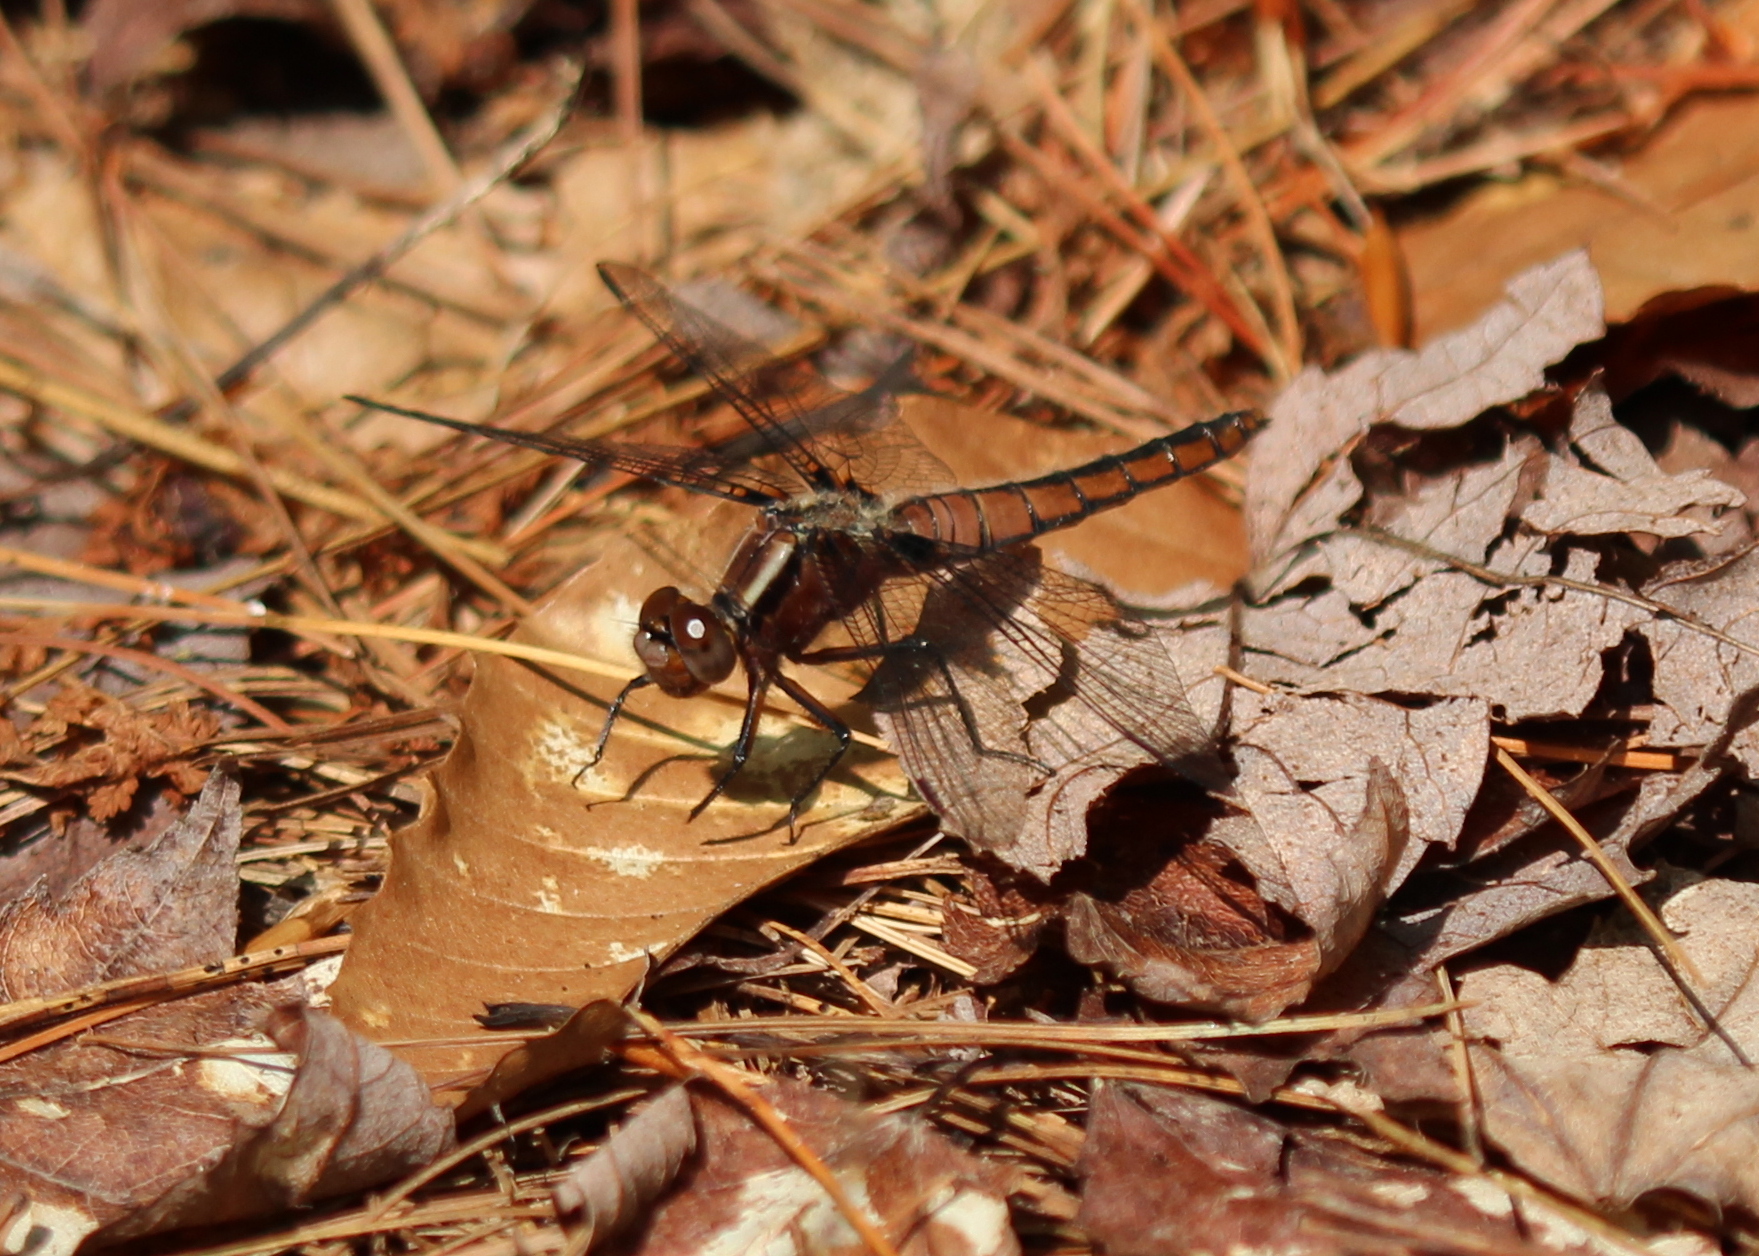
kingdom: Animalia
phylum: Arthropoda
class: Insecta
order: Odonata
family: Libellulidae
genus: Ladona
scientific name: Ladona julia
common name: Chalk-fronted corporal
